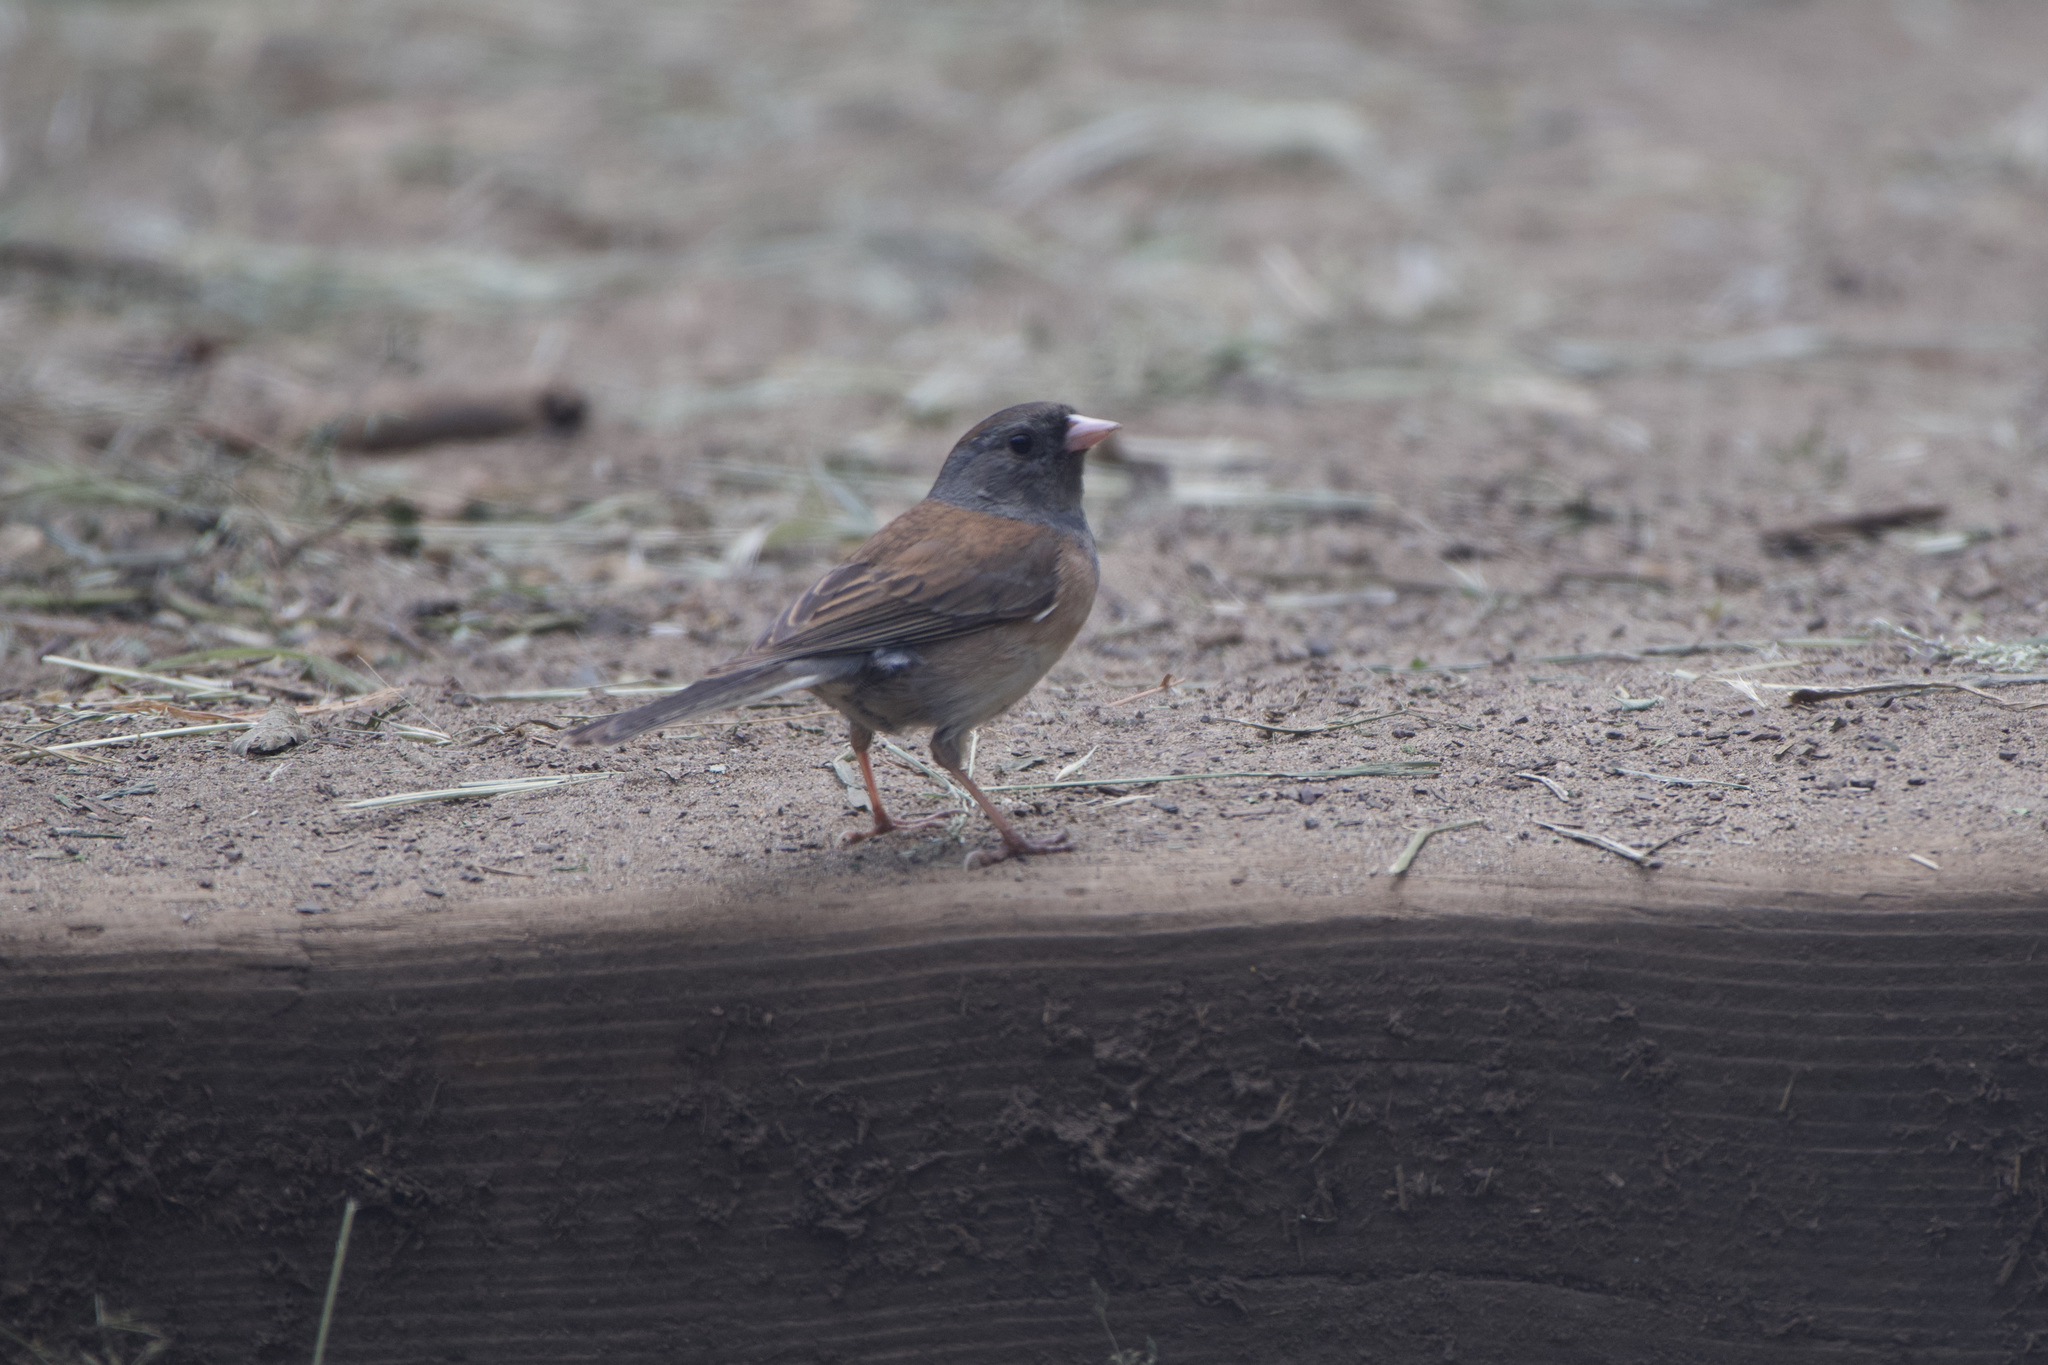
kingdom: Animalia
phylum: Chordata
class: Aves
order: Passeriformes
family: Passerellidae
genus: Junco
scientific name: Junco hyemalis
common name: Dark-eyed junco
